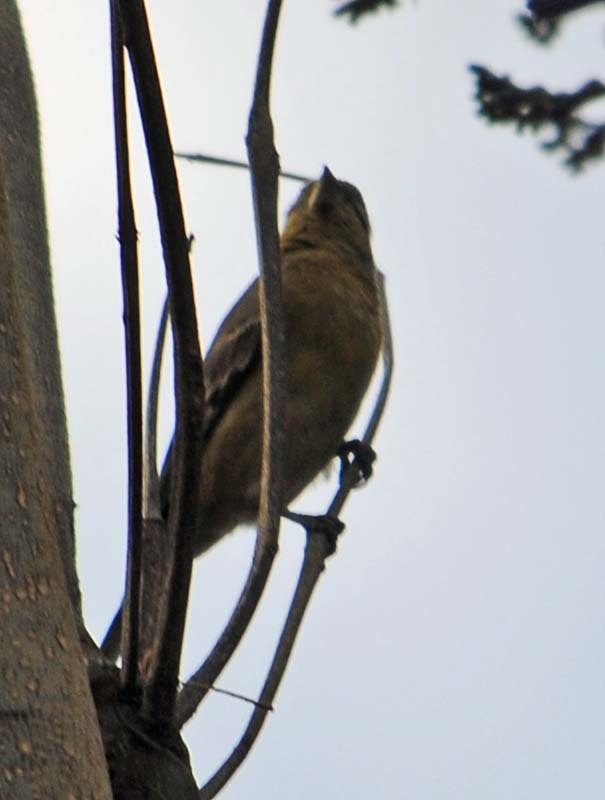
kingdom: Animalia
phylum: Chordata
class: Aves
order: Passeriformes
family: Fringillidae
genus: Spinus
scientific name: Spinus psaltria
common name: Lesser goldfinch
